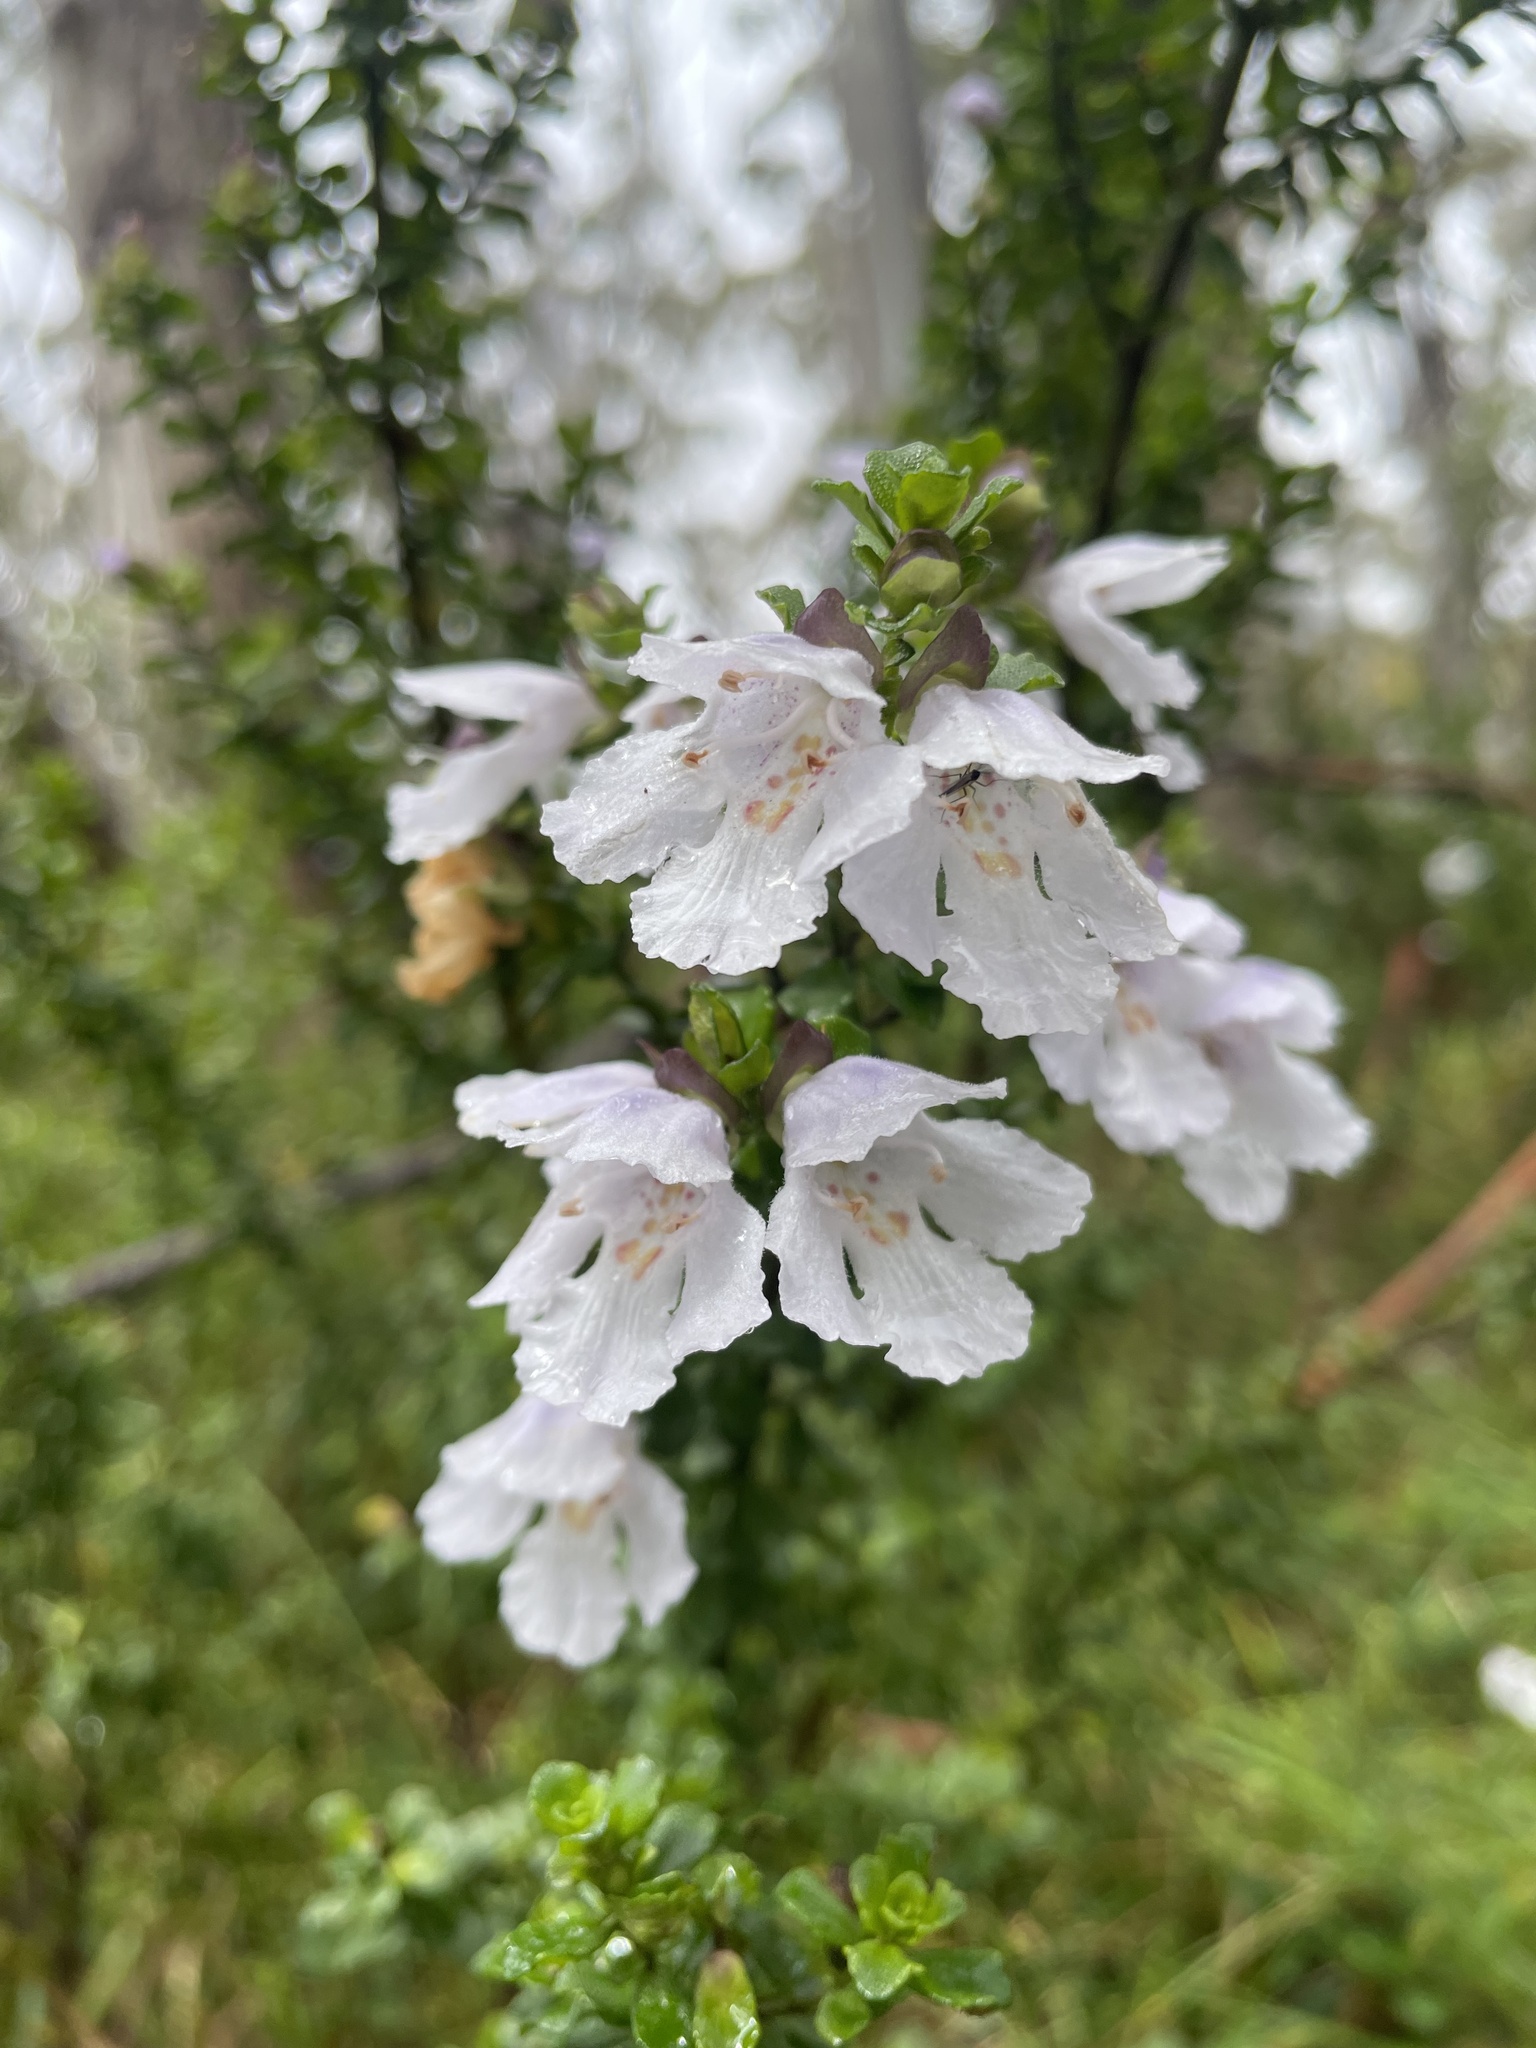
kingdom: Plantae
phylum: Tracheophyta
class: Magnoliopsida
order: Lamiales
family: Lamiaceae
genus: Prostanthera
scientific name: Prostanthera cuneata
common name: Alpine mintbush
